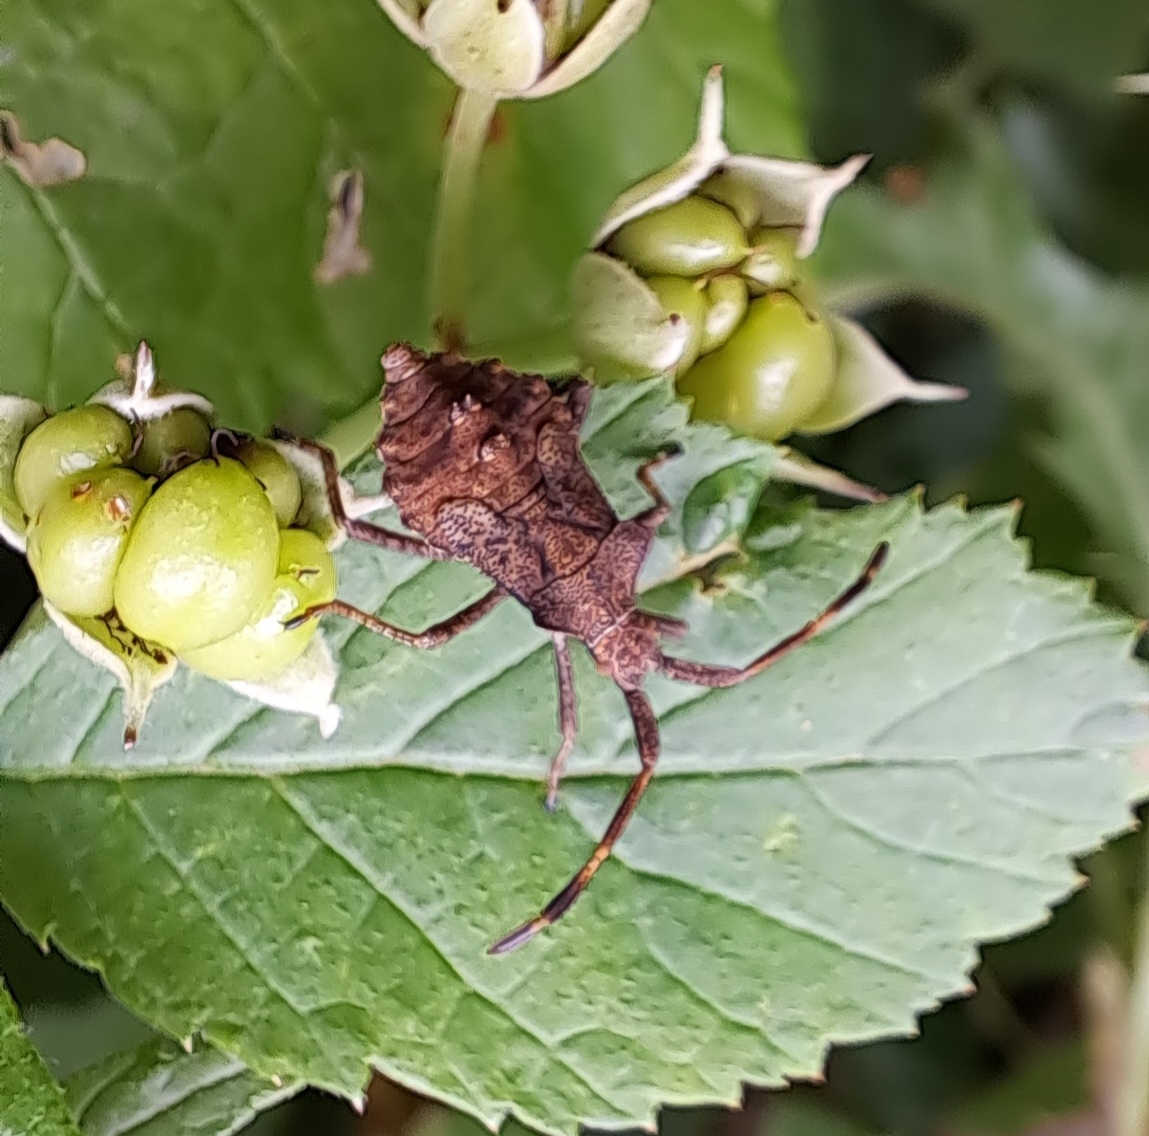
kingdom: Animalia
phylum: Arthropoda
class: Insecta
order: Hemiptera
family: Coreidae
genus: Coreus
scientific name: Coreus marginatus
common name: Dock bug
